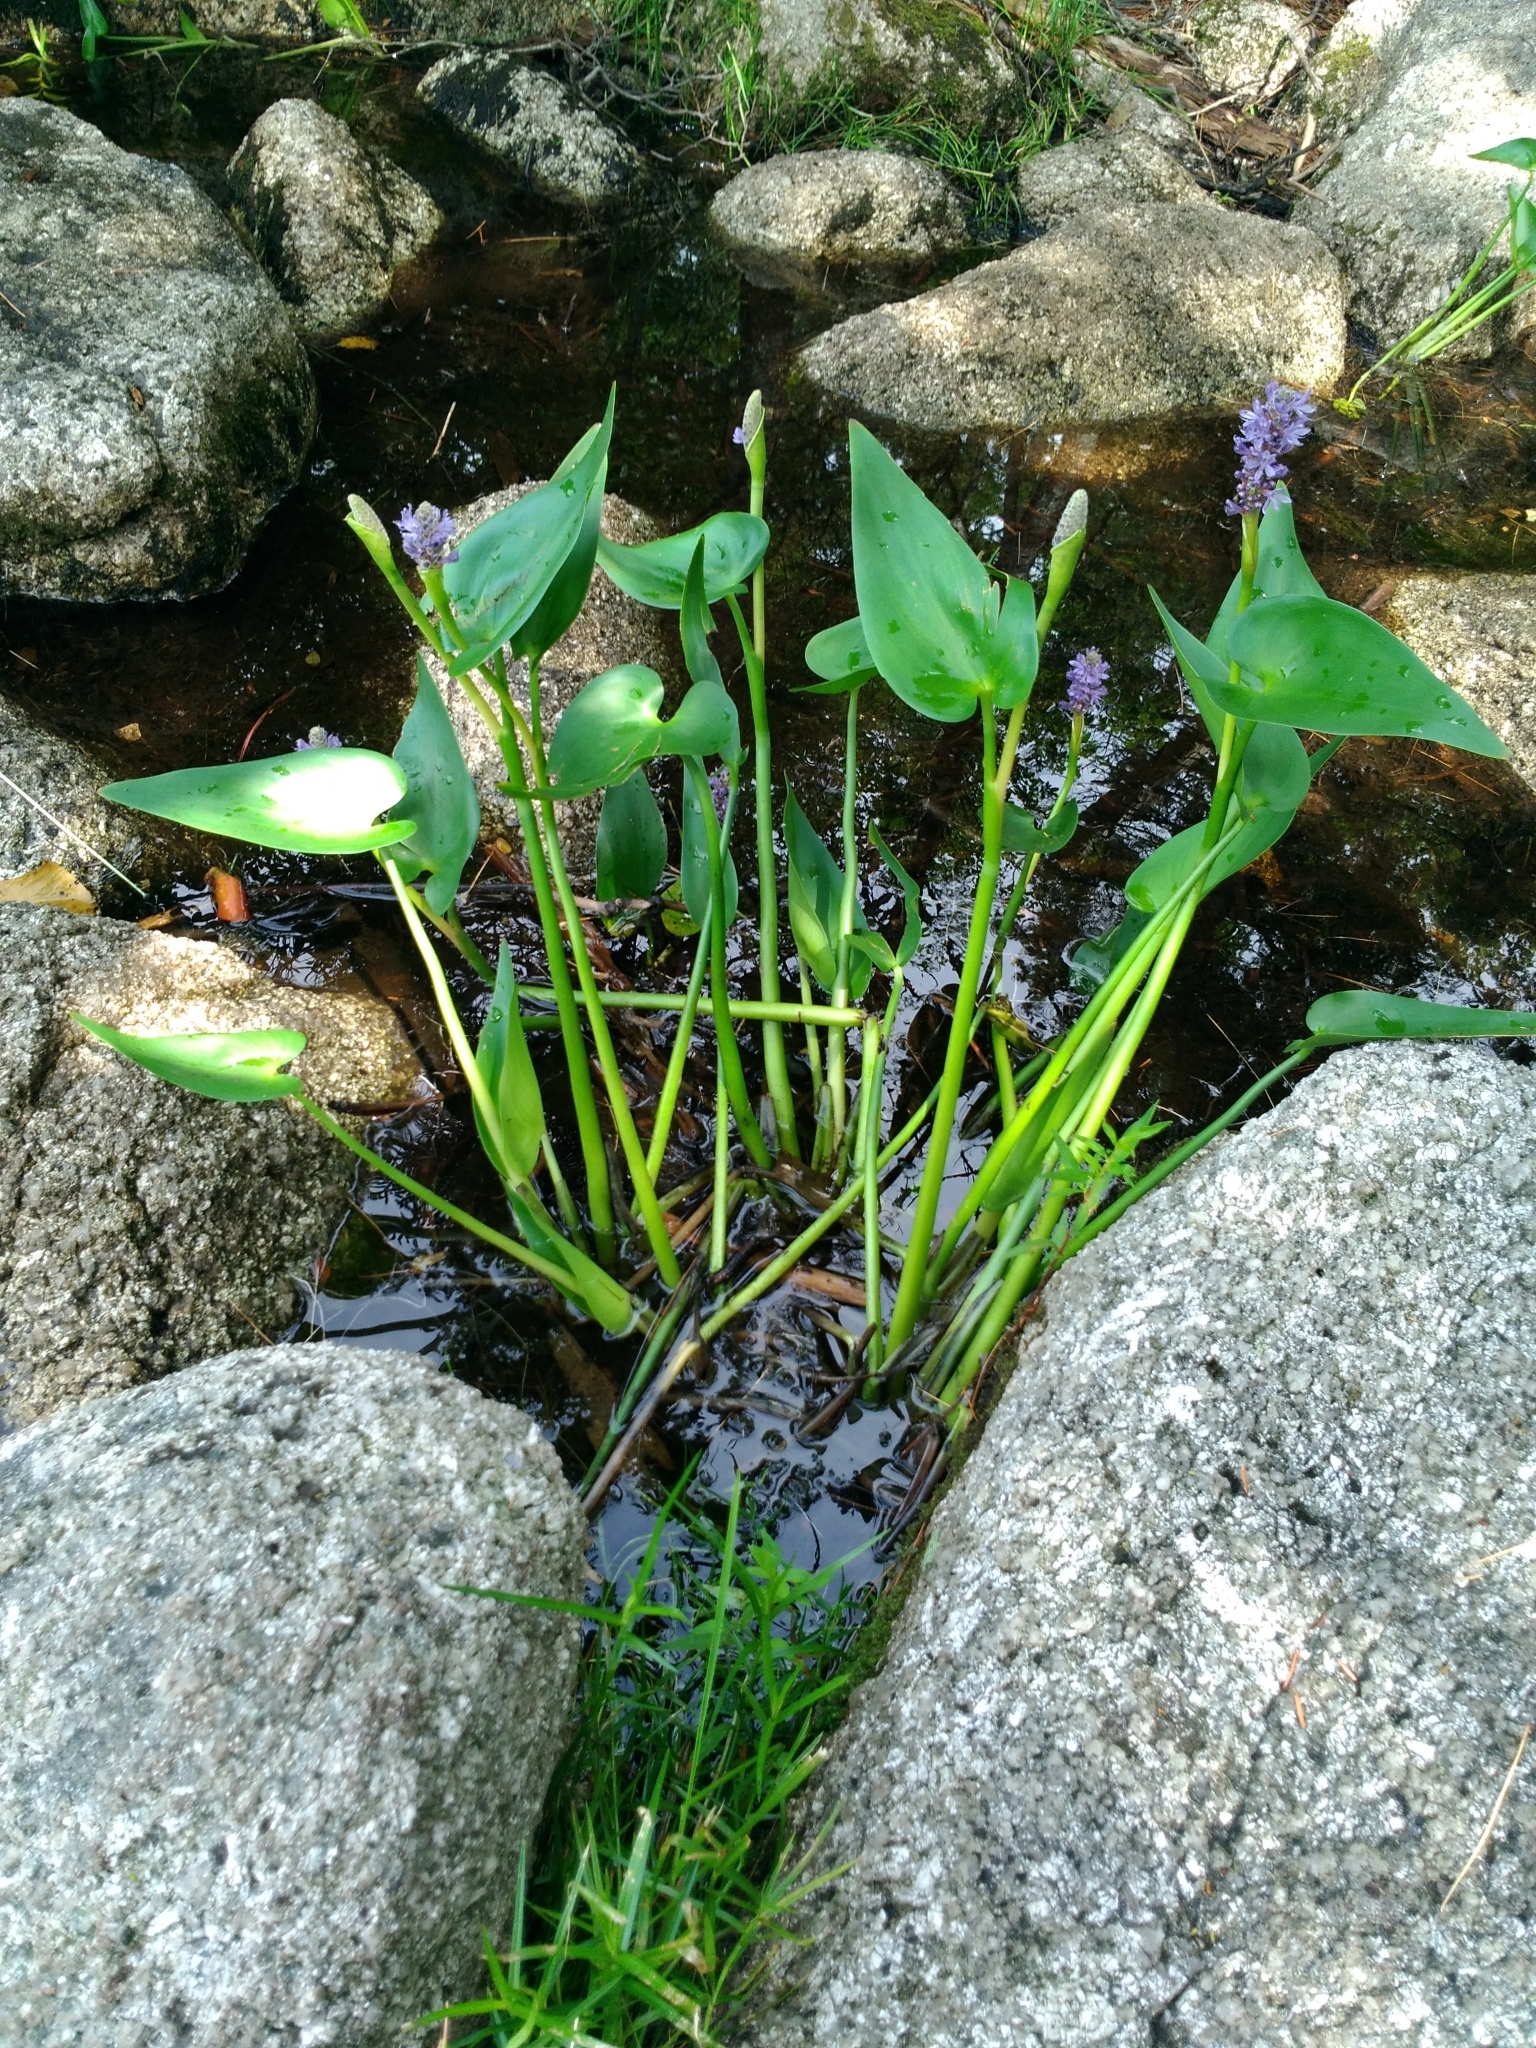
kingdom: Plantae
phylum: Tracheophyta
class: Liliopsida
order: Commelinales
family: Pontederiaceae
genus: Pontederia
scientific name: Pontederia cordata
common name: Pickerelweed
